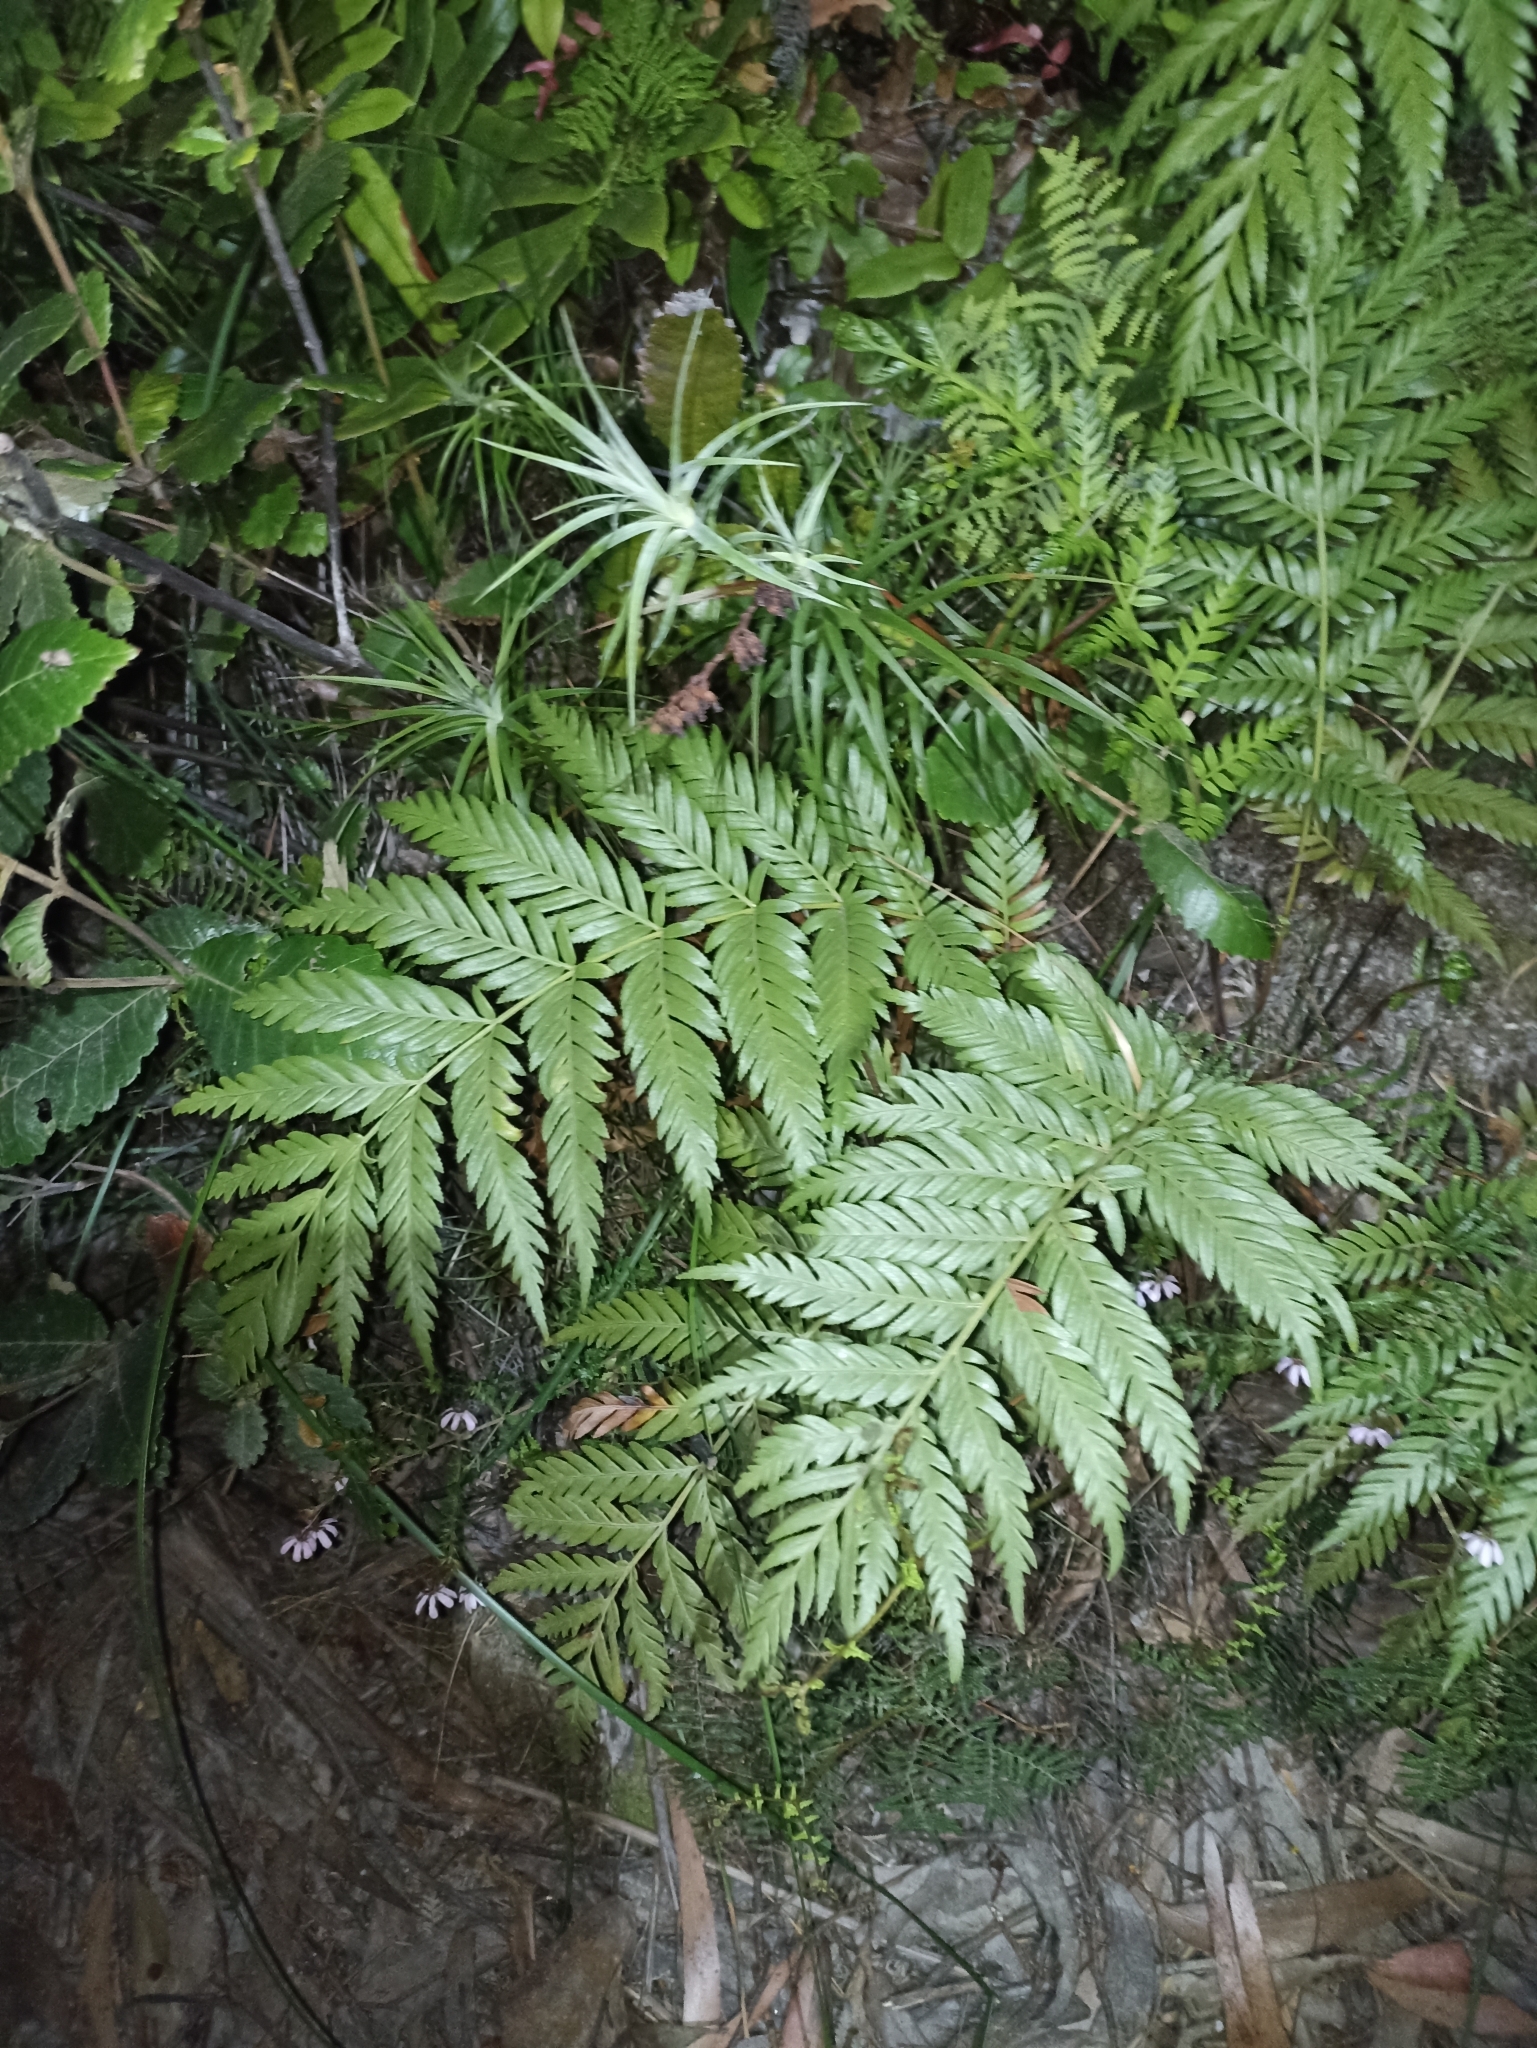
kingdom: Plantae
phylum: Tracheophyta
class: Polypodiopsida
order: Osmundales
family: Osmundaceae
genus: Todea
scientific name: Todea barbara
